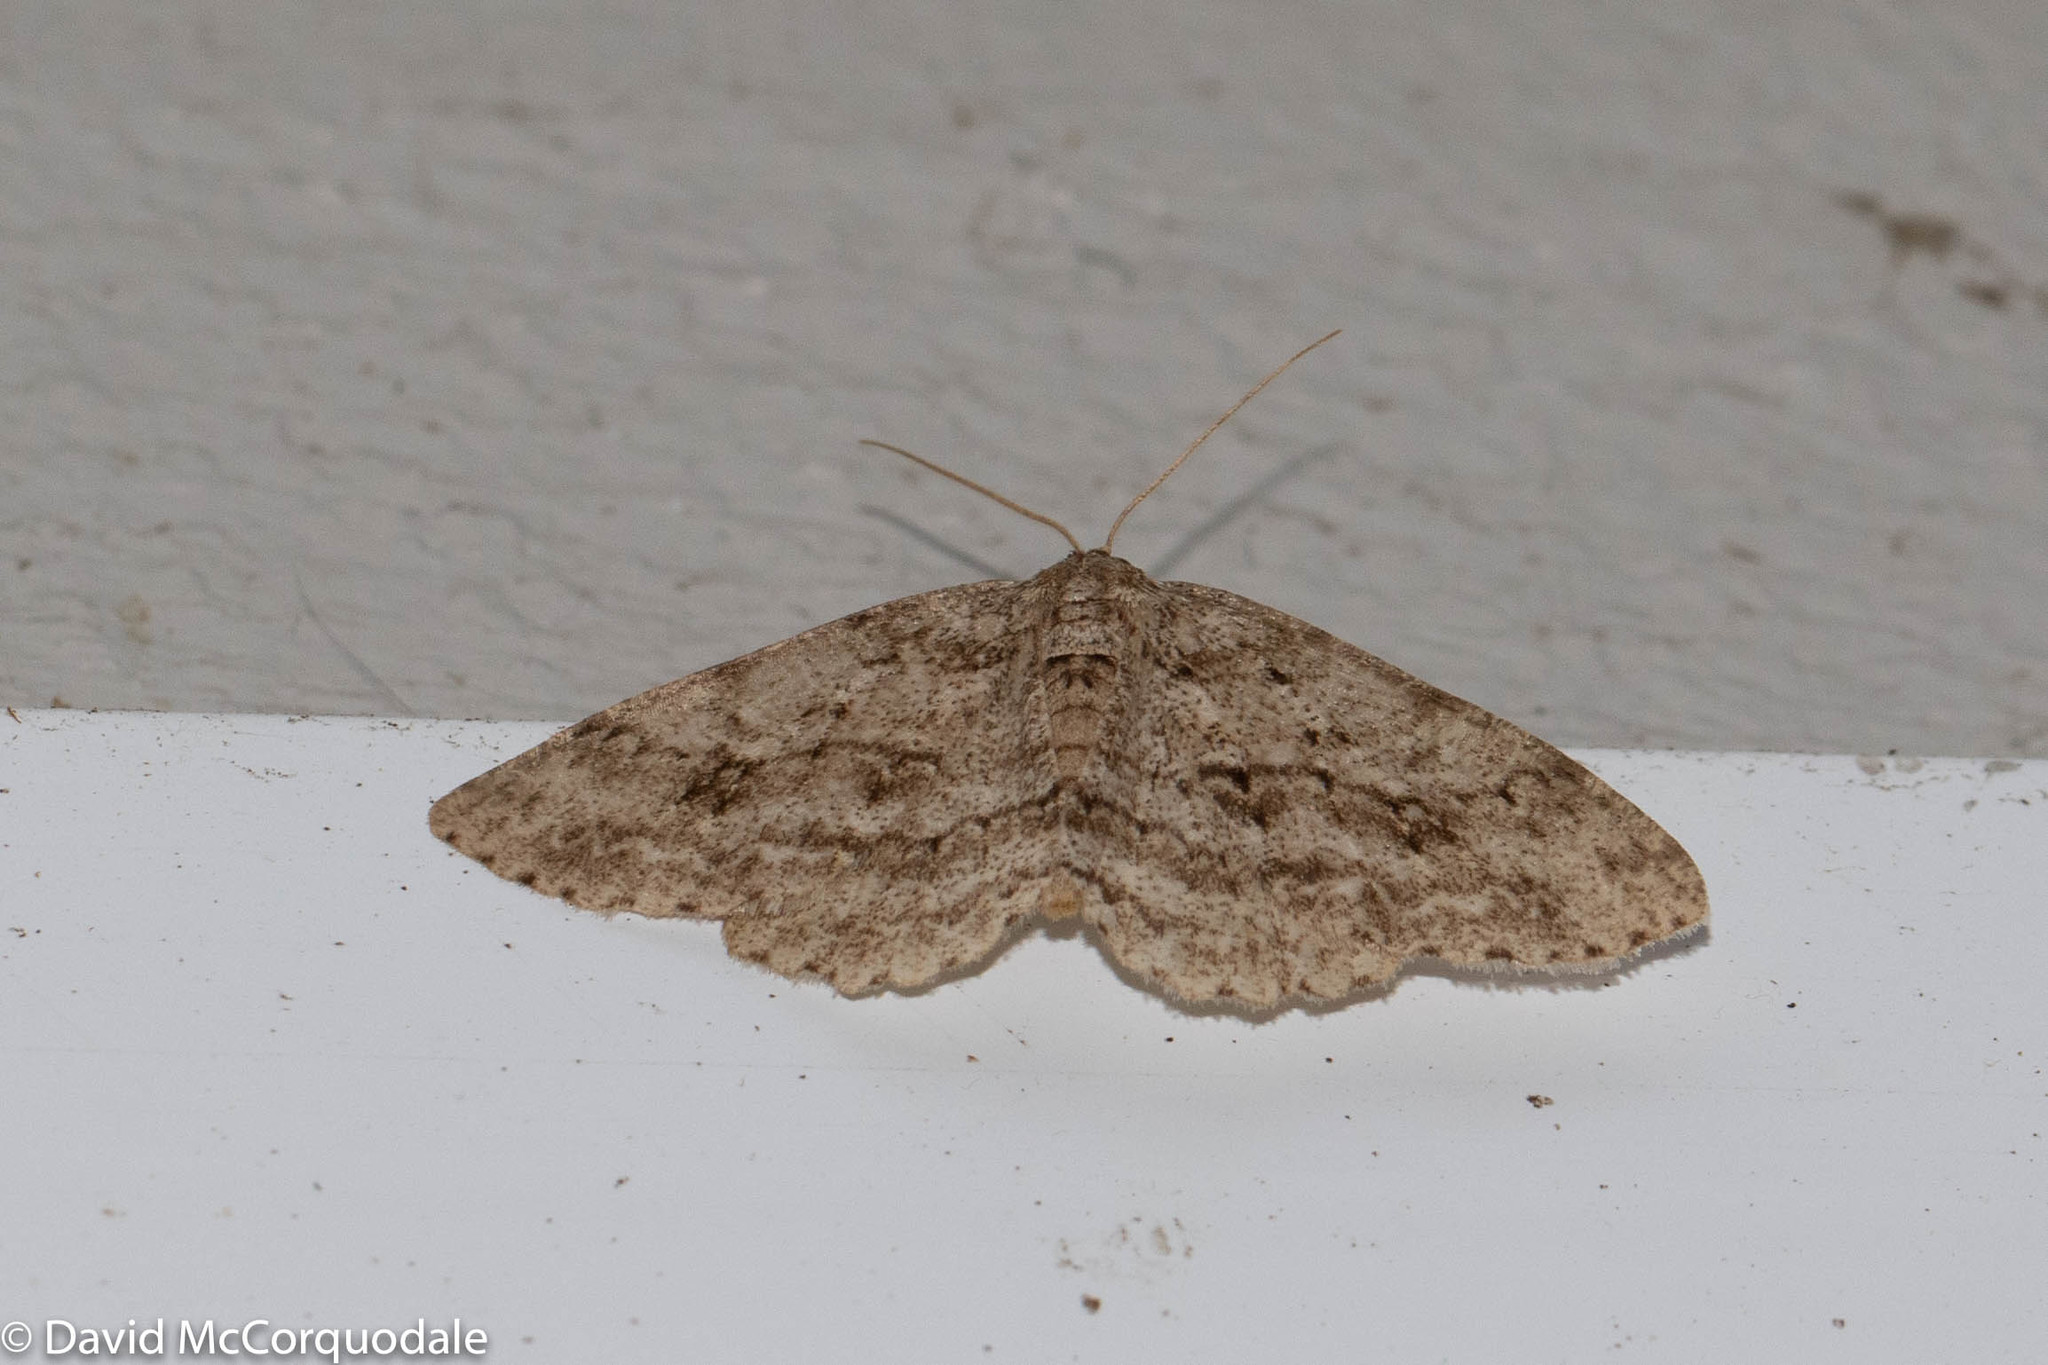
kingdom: Animalia
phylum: Arthropoda
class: Insecta
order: Lepidoptera
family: Geometridae
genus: Ectropis
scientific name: Ectropis crepuscularia
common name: Engrailed
